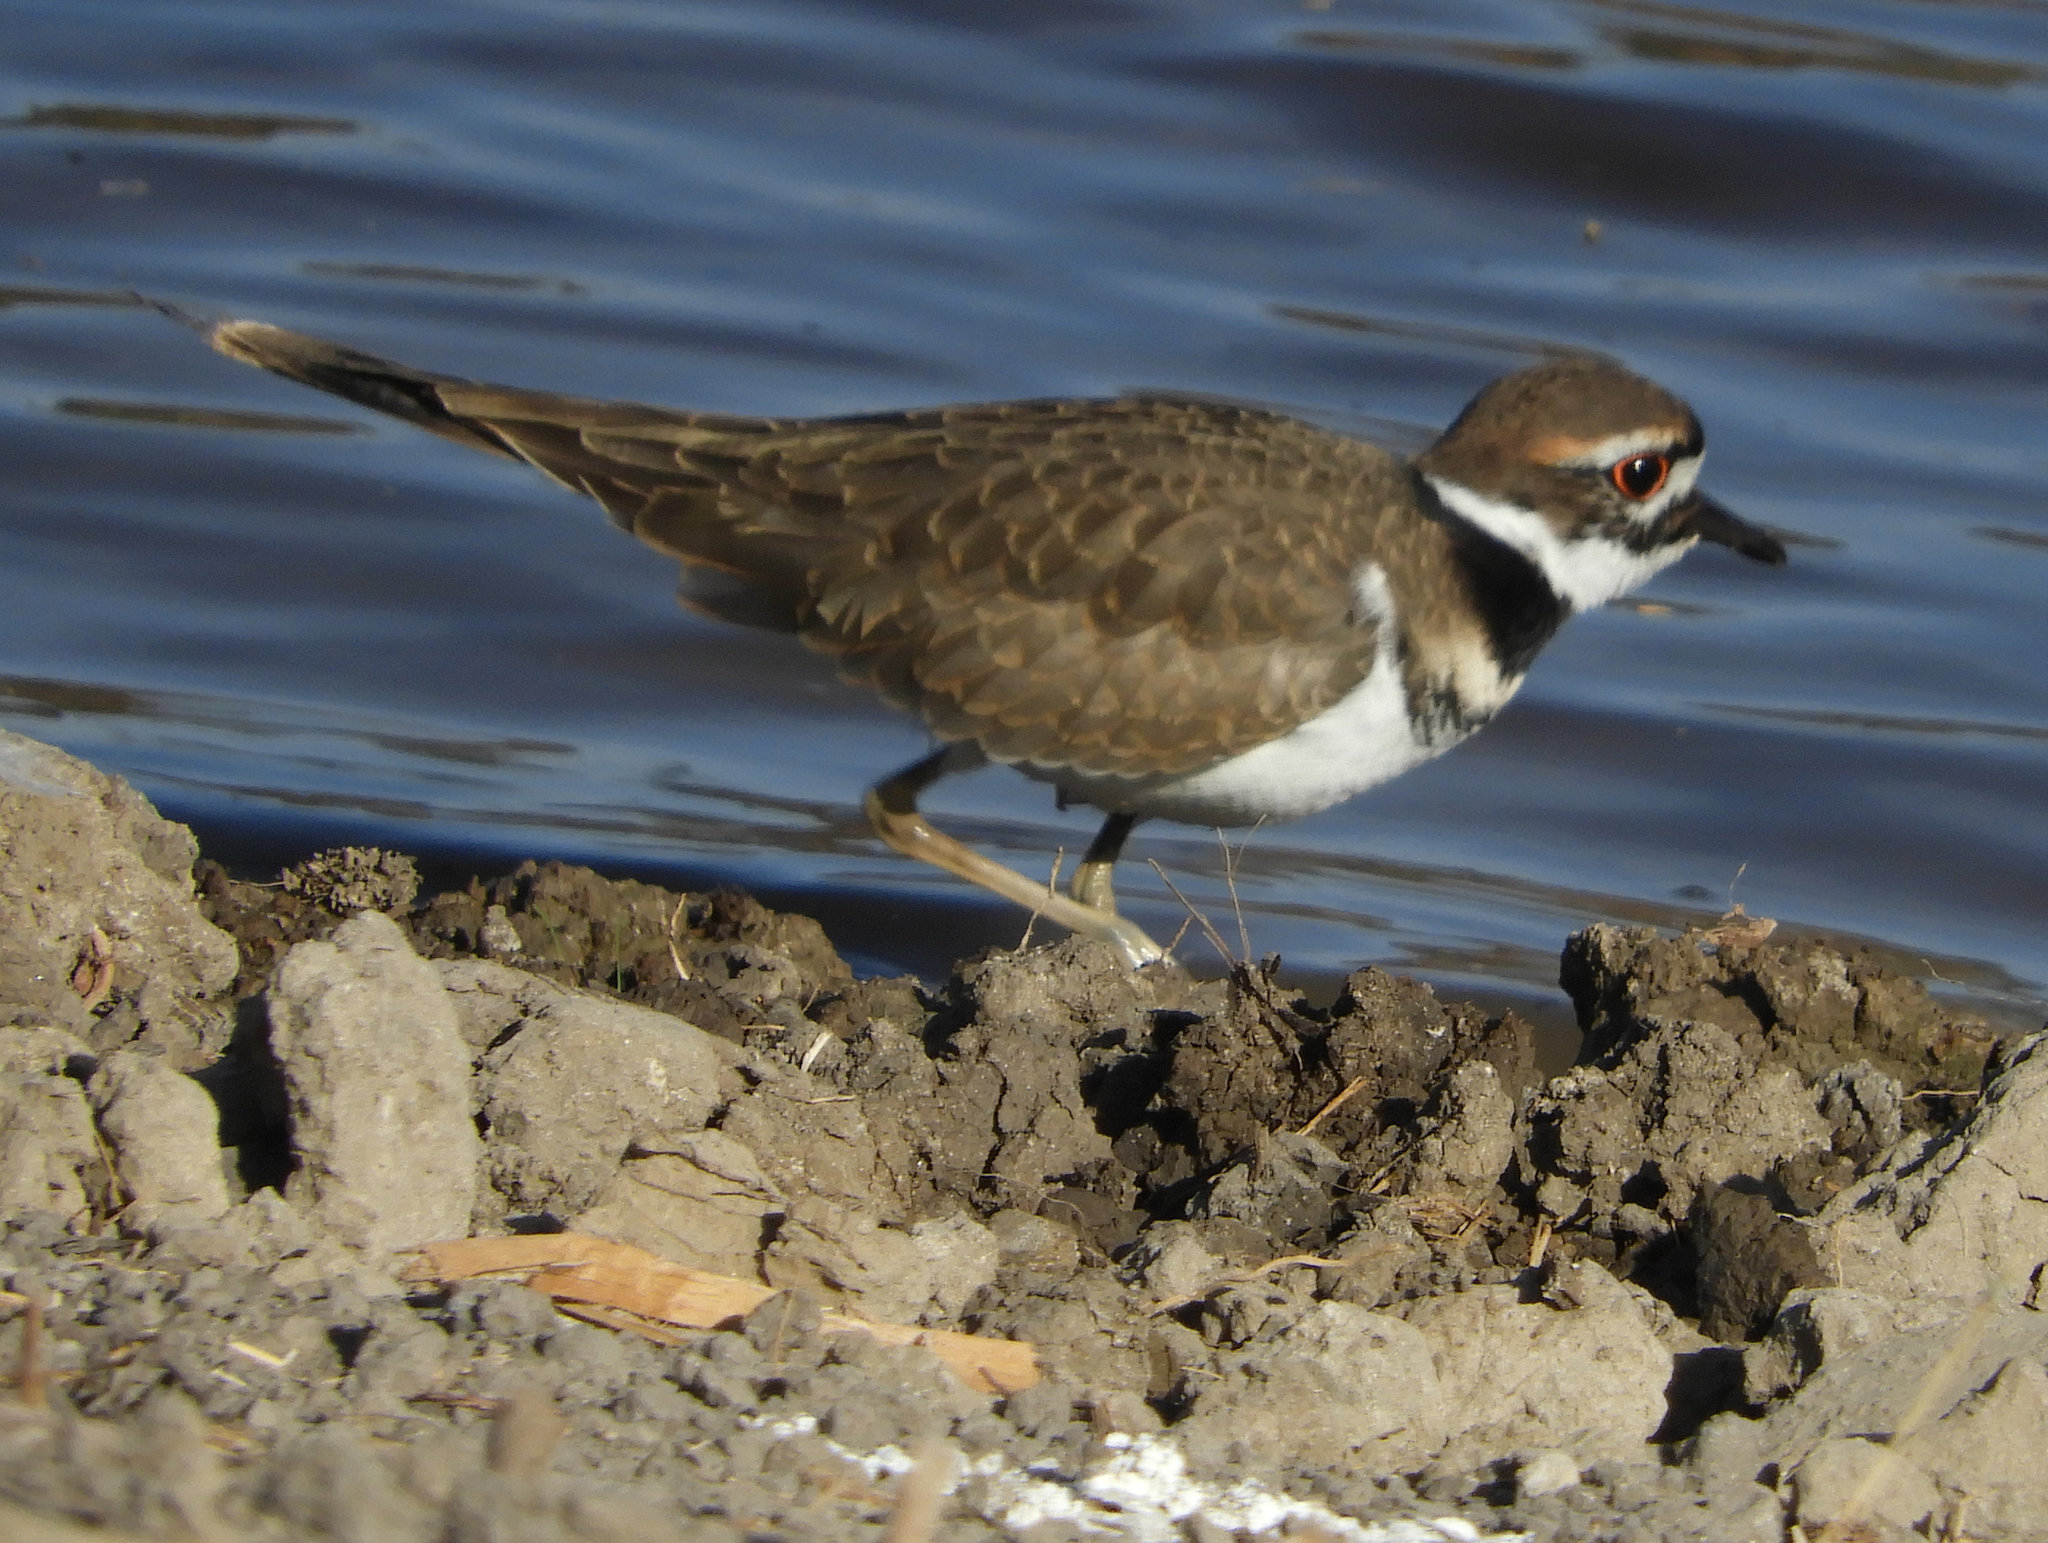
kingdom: Animalia
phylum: Chordata
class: Aves
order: Charadriiformes
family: Charadriidae
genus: Charadrius
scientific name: Charadrius vociferus
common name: Killdeer
